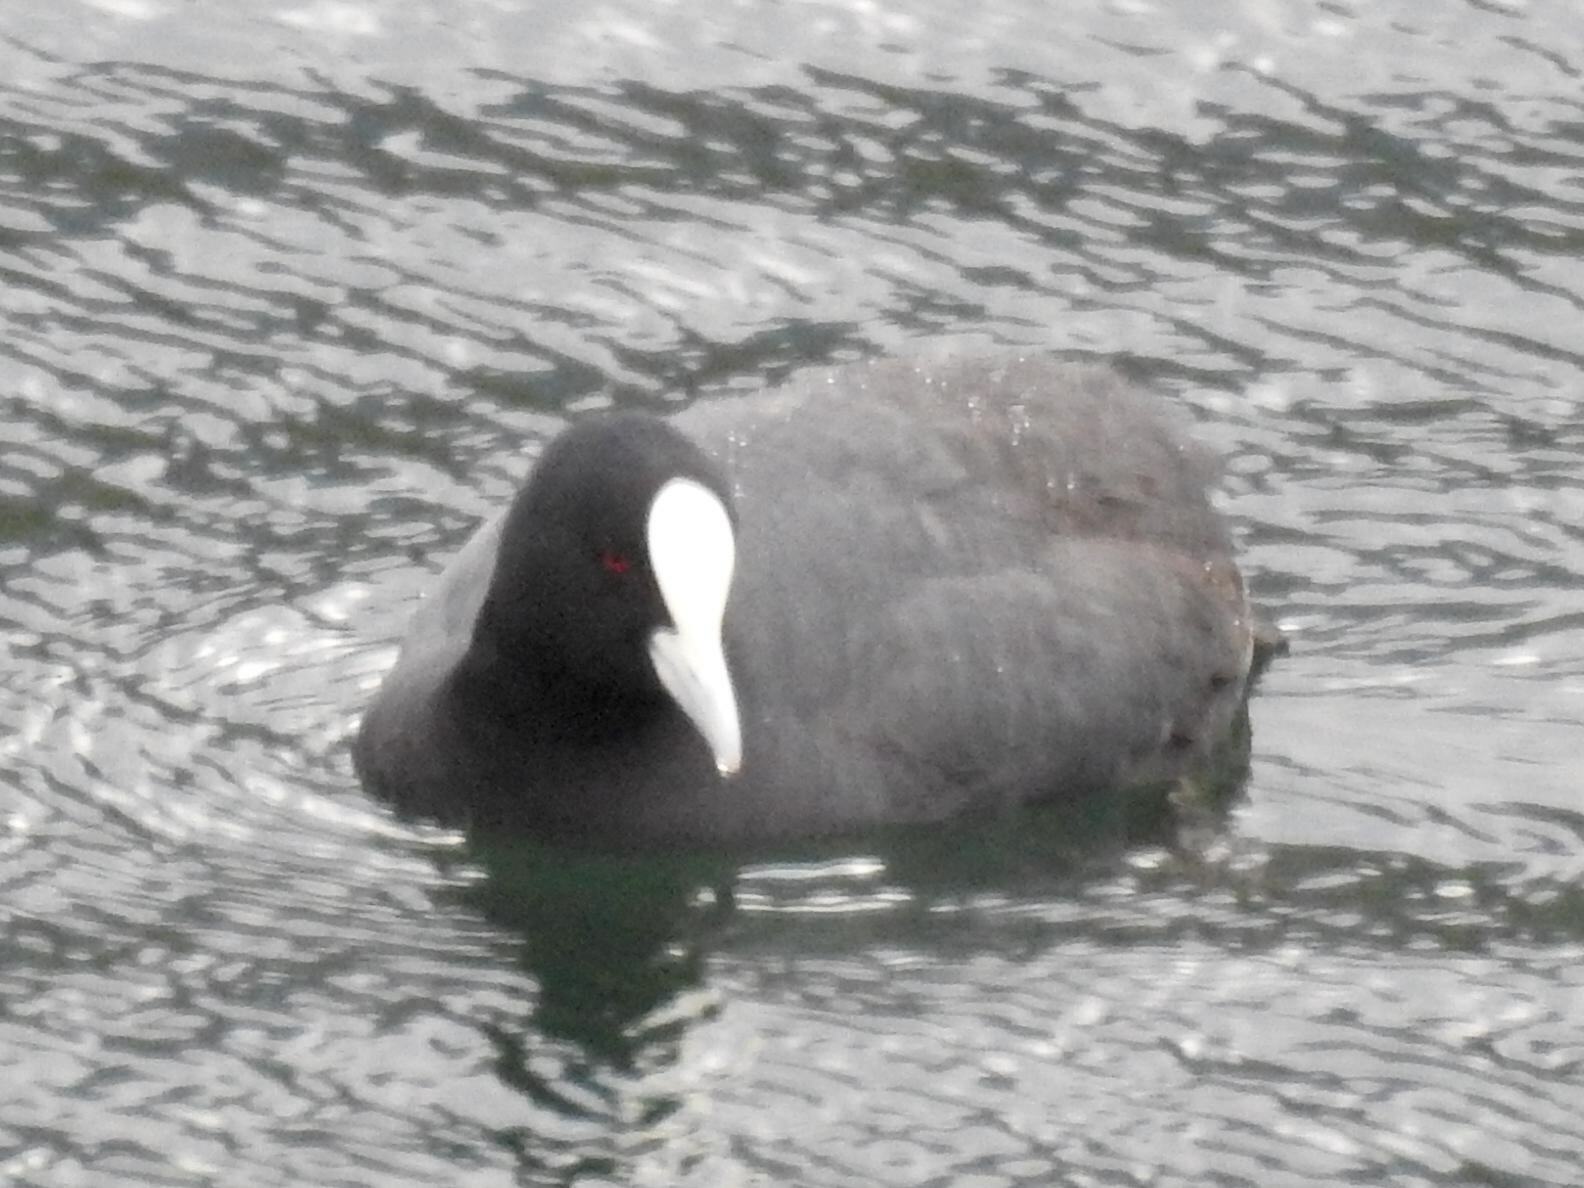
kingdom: Animalia
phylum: Chordata
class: Aves
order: Gruiformes
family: Rallidae
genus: Fulica
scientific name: Fulica atra
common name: Eurasian coot
